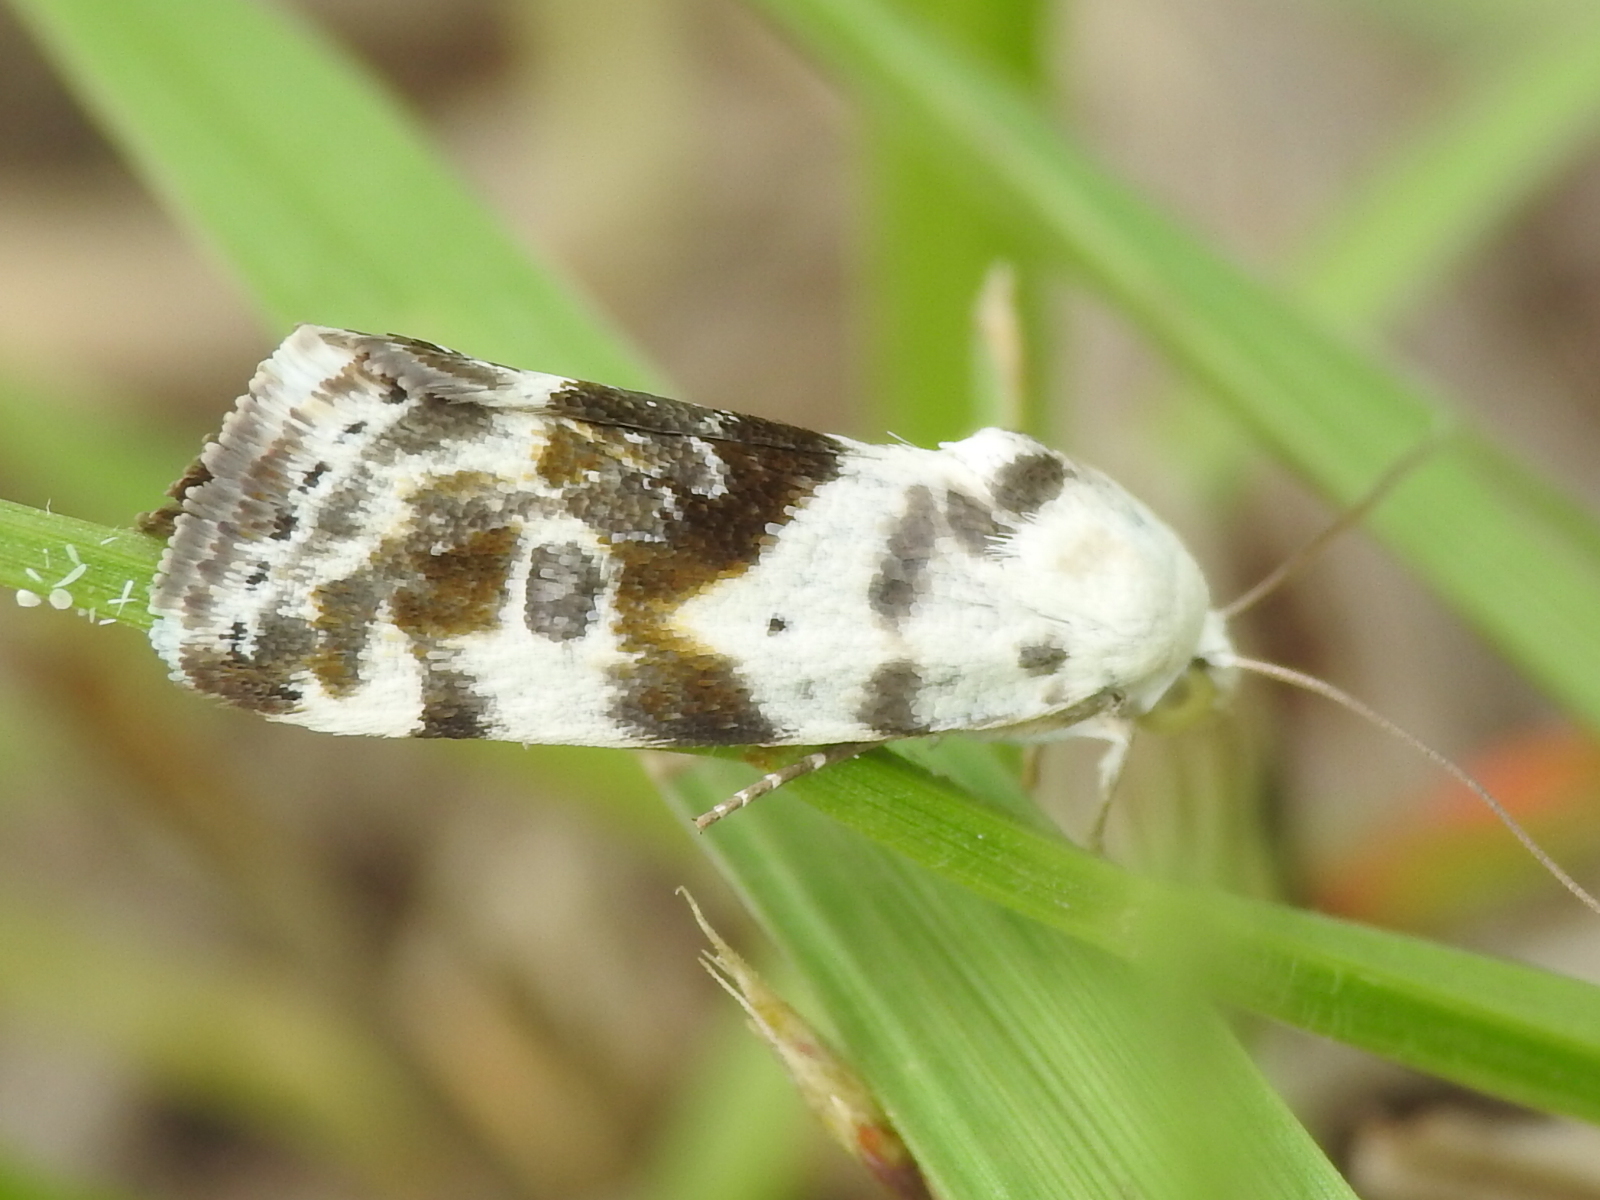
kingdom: Animalia
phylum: Arthropoda
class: Insecta
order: Lepidoptera
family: Noctuidae
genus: Acontia
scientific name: Acontia candefacta
